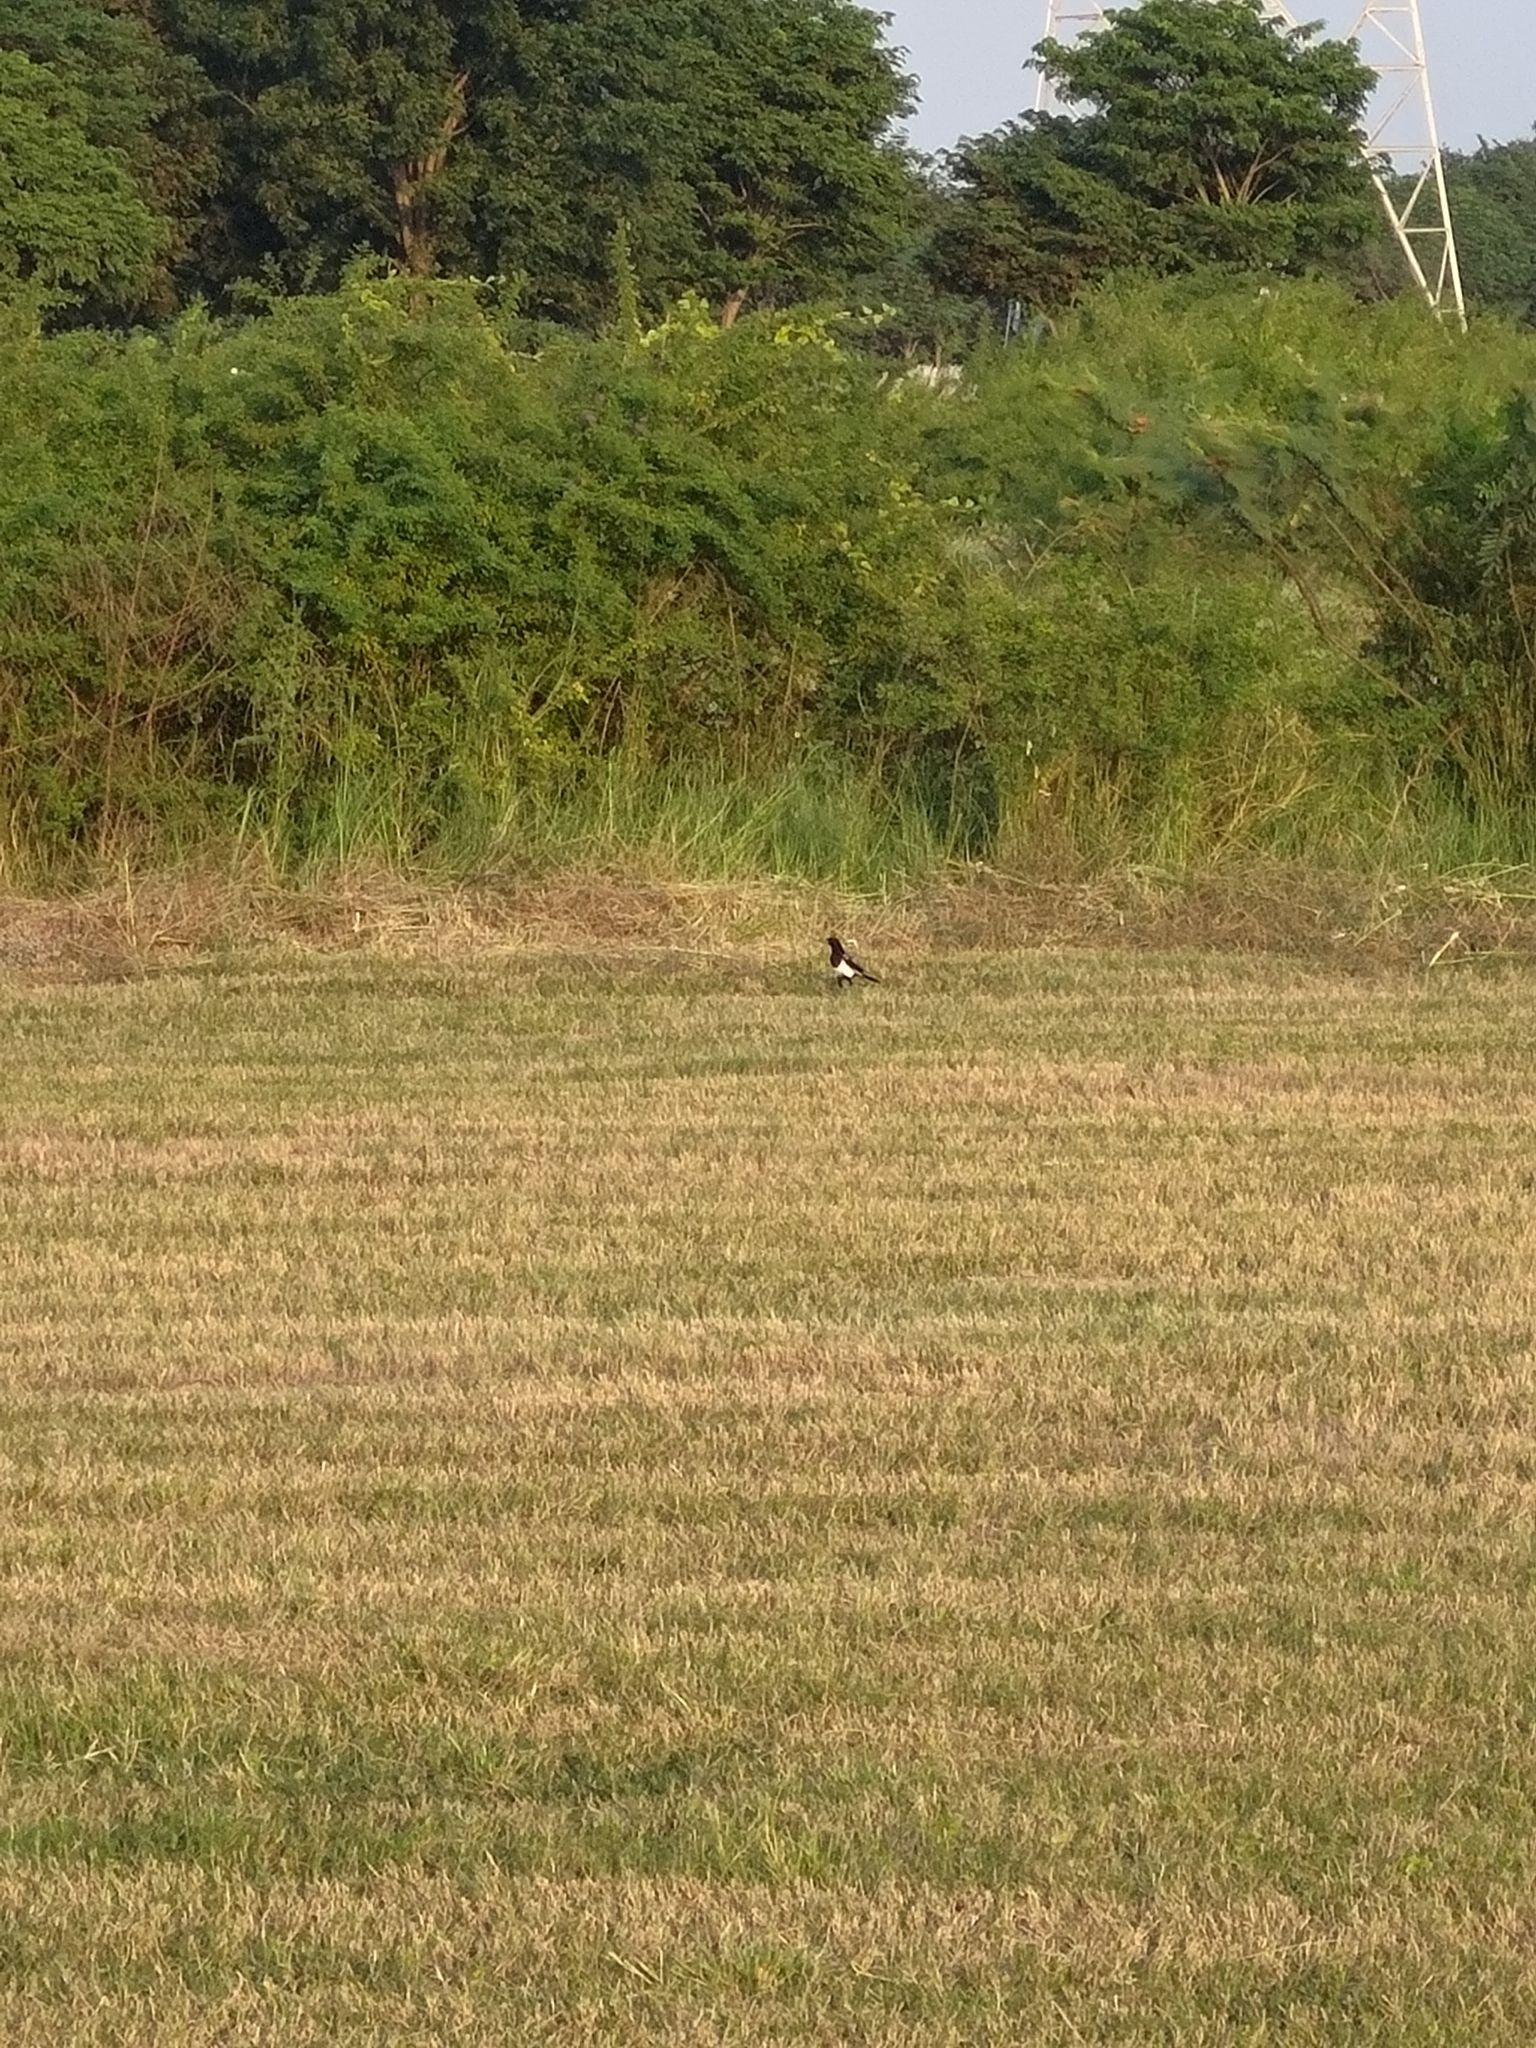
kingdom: Animalia
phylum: Chordata
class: Aves
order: Passeriformes
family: Corvidae
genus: Pica
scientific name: Pica serica
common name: Oriental magpie
